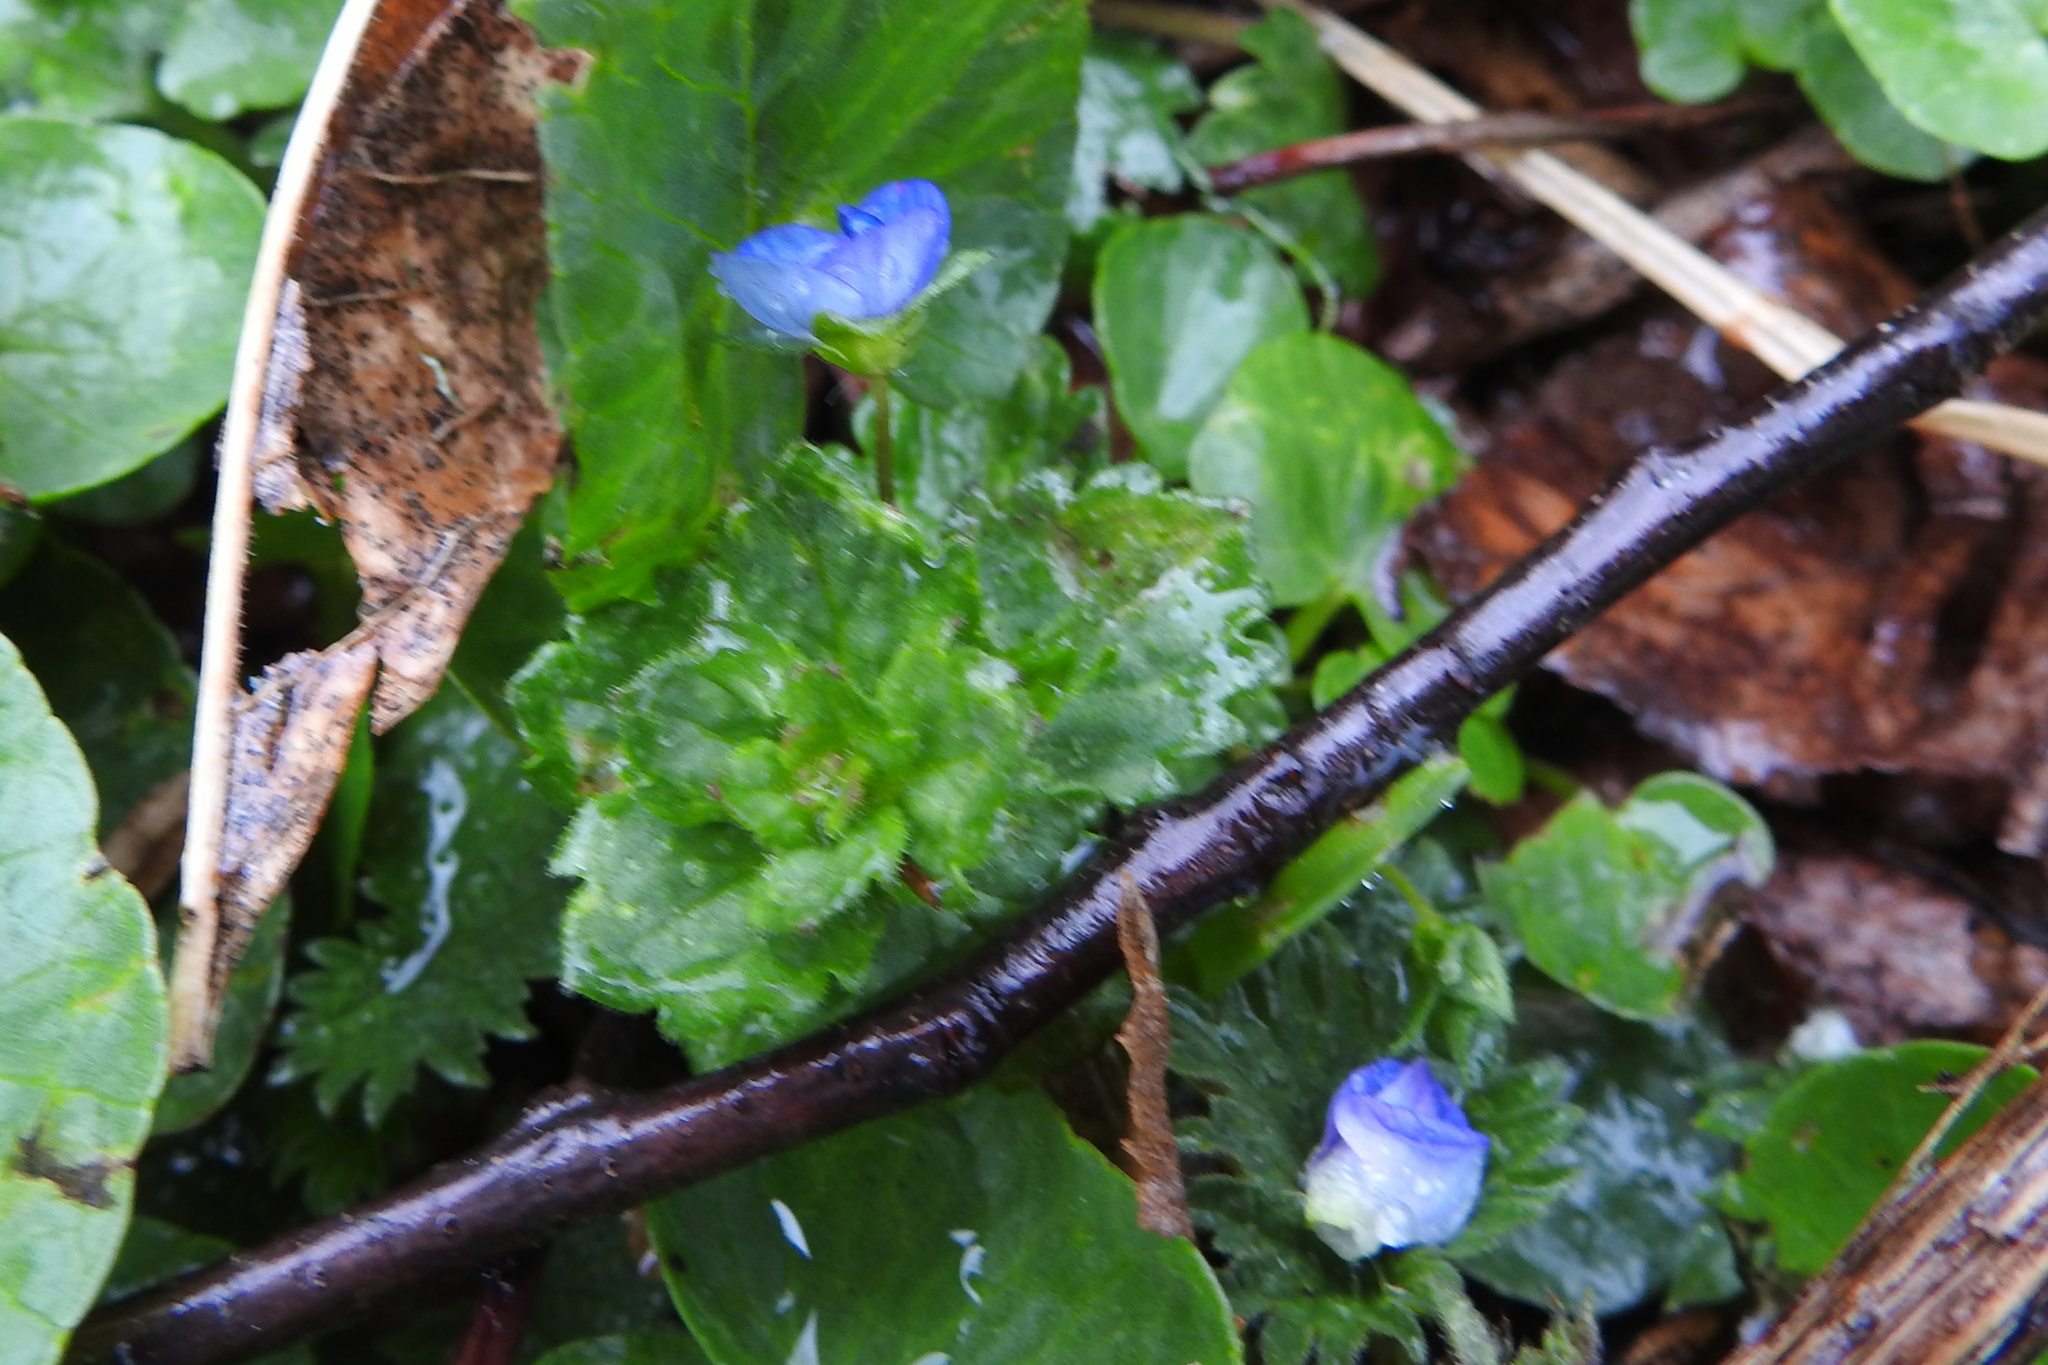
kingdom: Plantae
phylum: Tracheophyta
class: Magnoliopsida
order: Lamiales
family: Plantaginaceae
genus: Veronica
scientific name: Veronica persica
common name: Common field-speedwell
